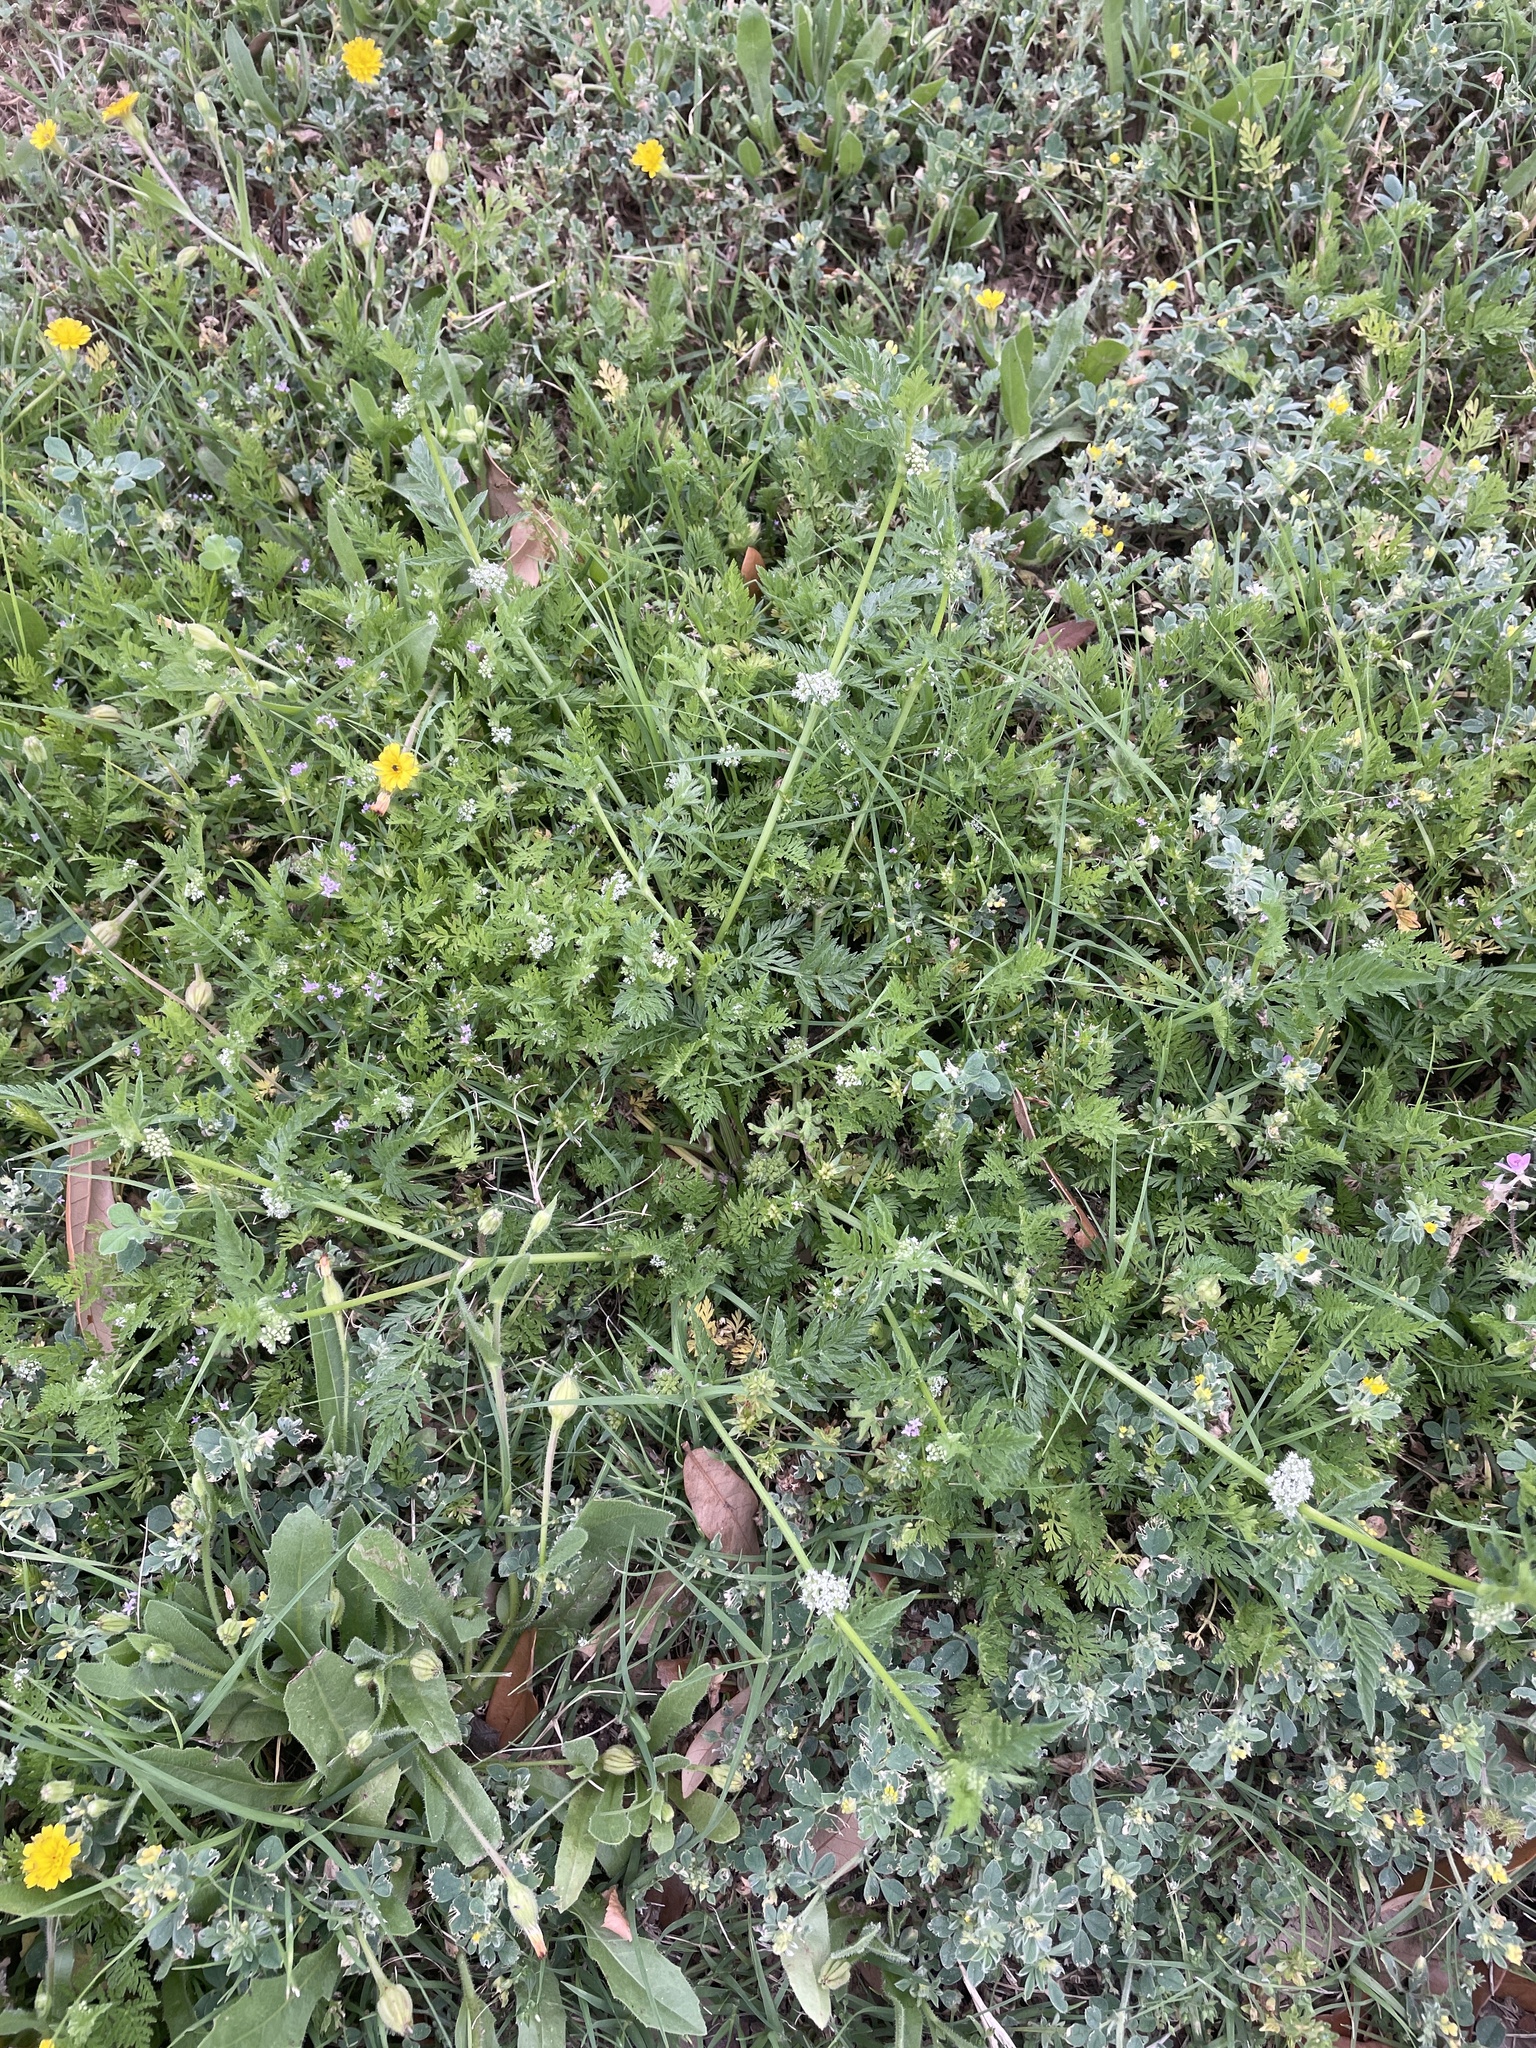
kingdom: Plantae
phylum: Tracheophyta
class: Magnoliopsida
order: Apiales
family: Apiaceae
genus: Torilis
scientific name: Torilis nodosa
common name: Knotted hedge-parsley
